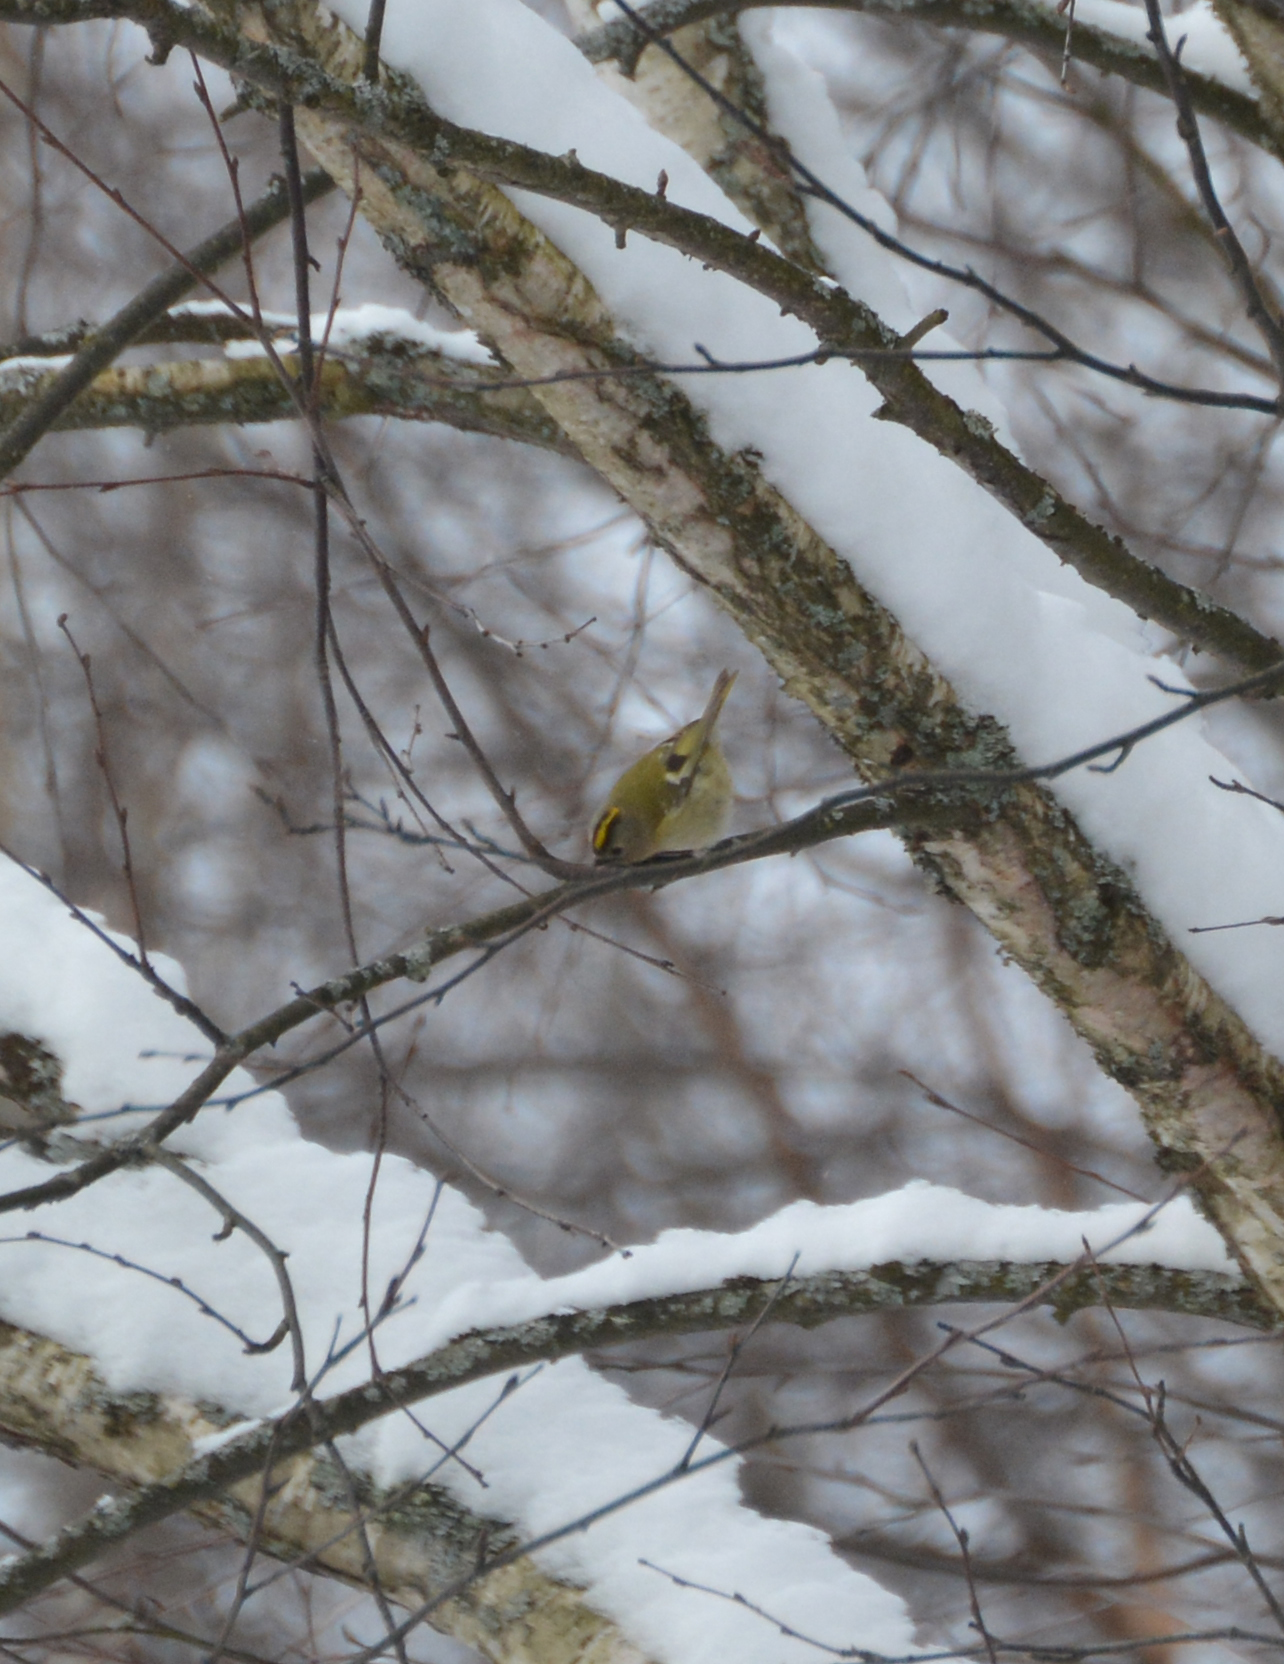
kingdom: Animalia
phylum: Chordata
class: Aves
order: Passeriformes
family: Regulidae
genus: Regulus
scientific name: Regulus regulus
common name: Goldcrest
